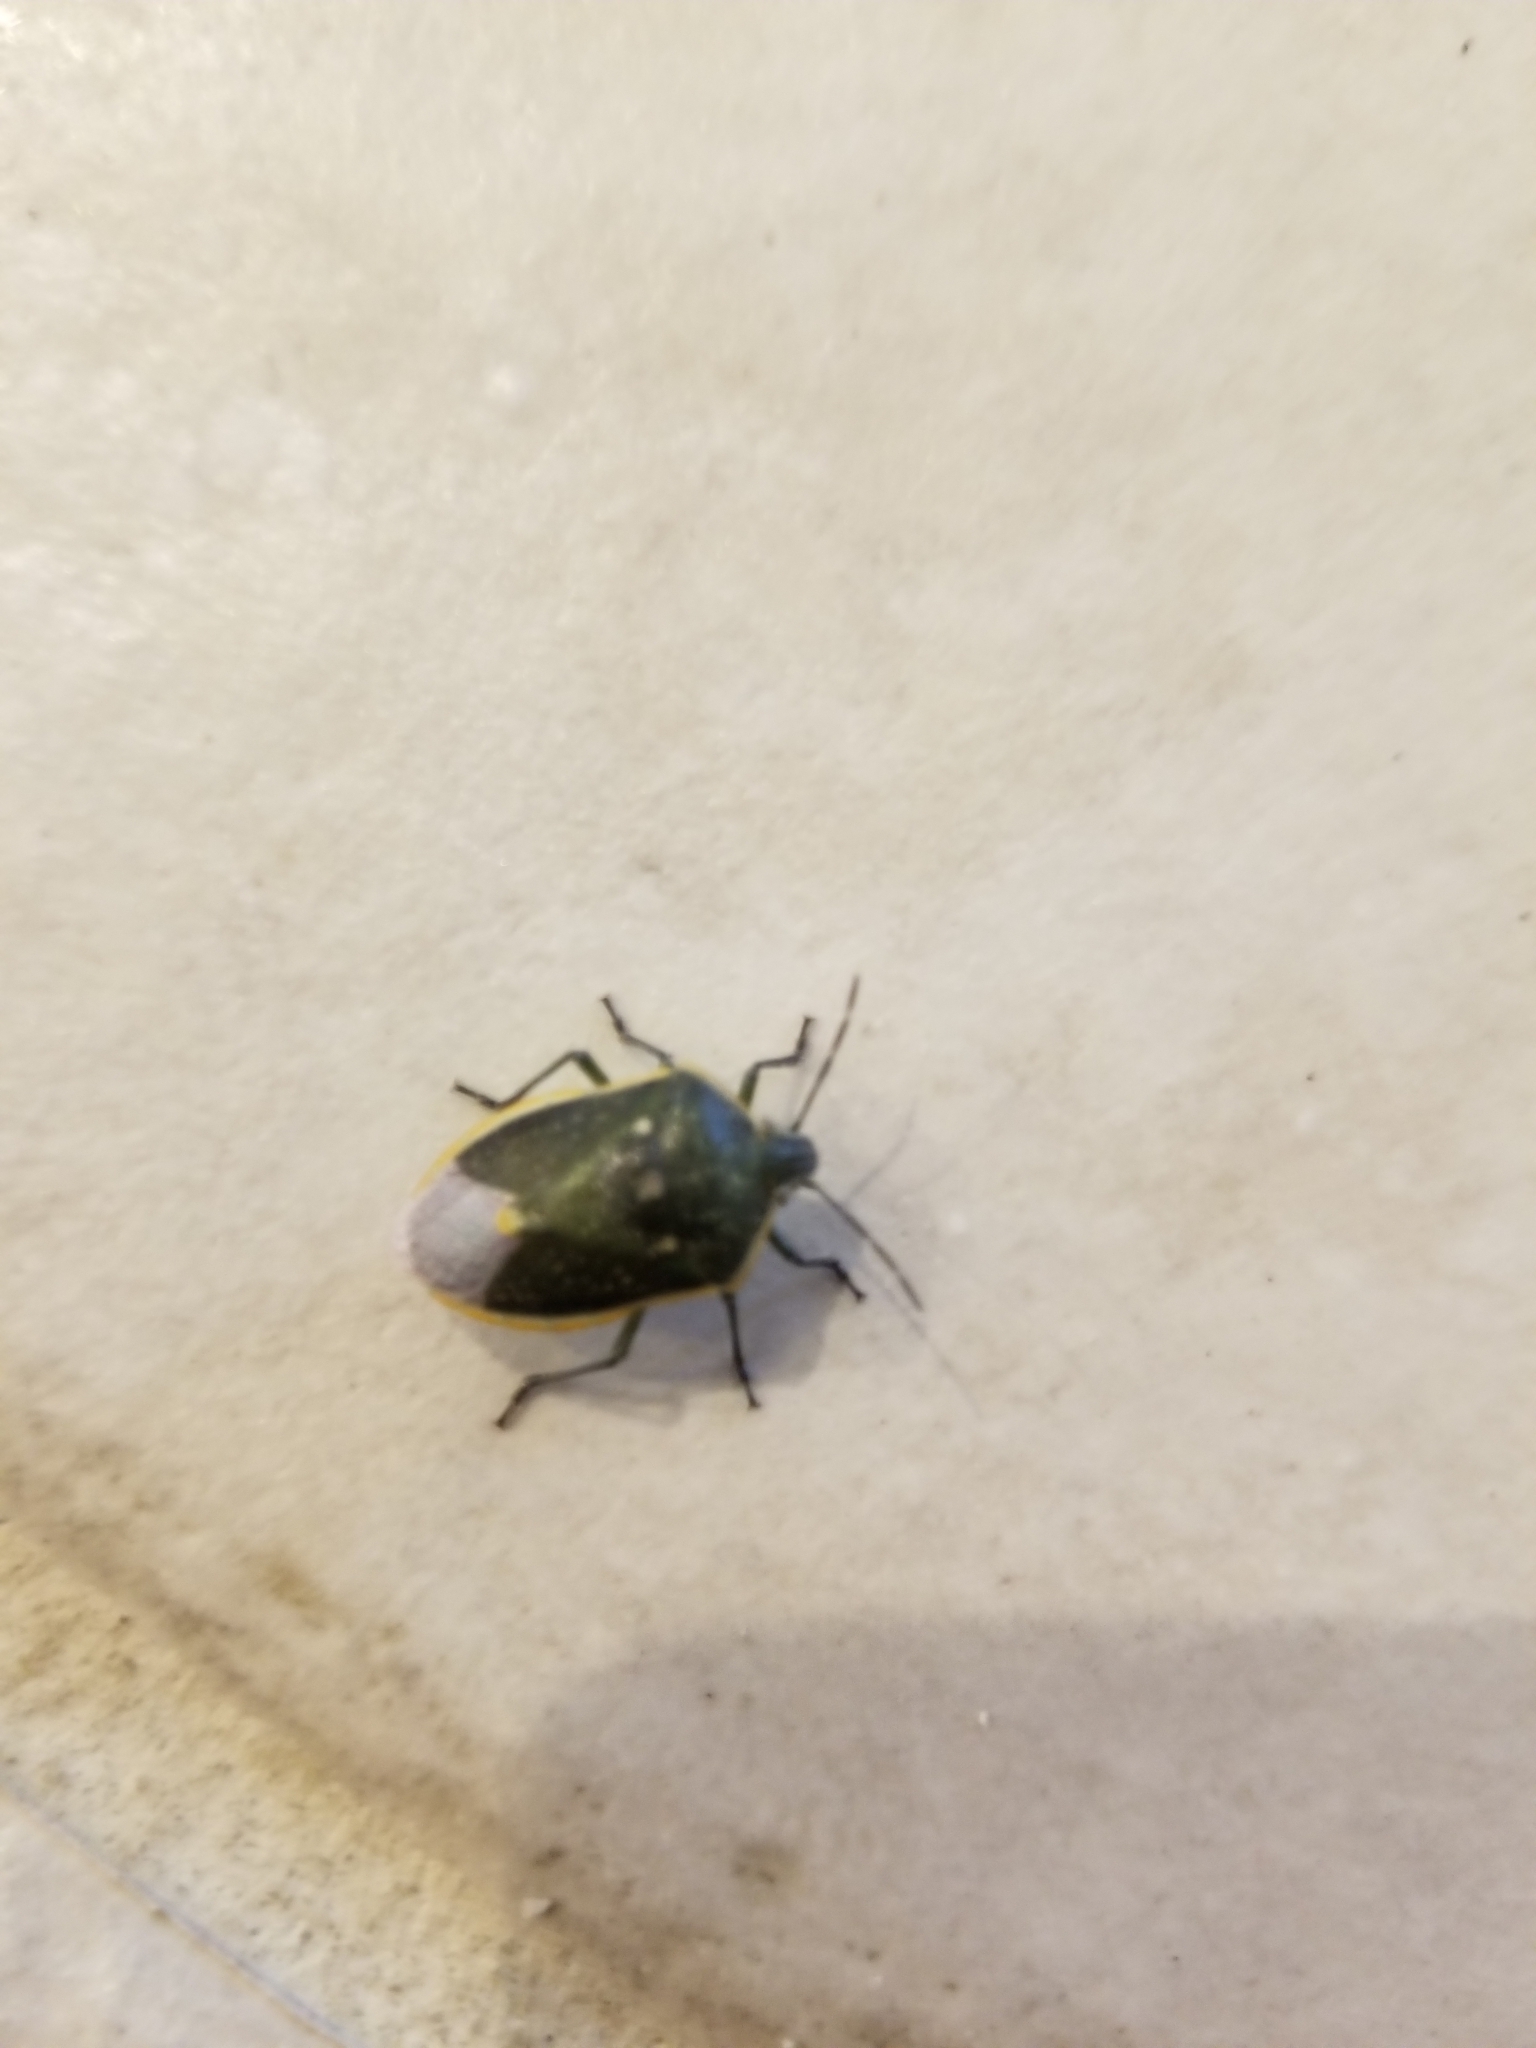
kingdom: Animalia
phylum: Arthropoda
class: Insecta
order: Hemiptera
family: Pentatomidae
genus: Chlorochroa
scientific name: Chlorochroa uhleri
